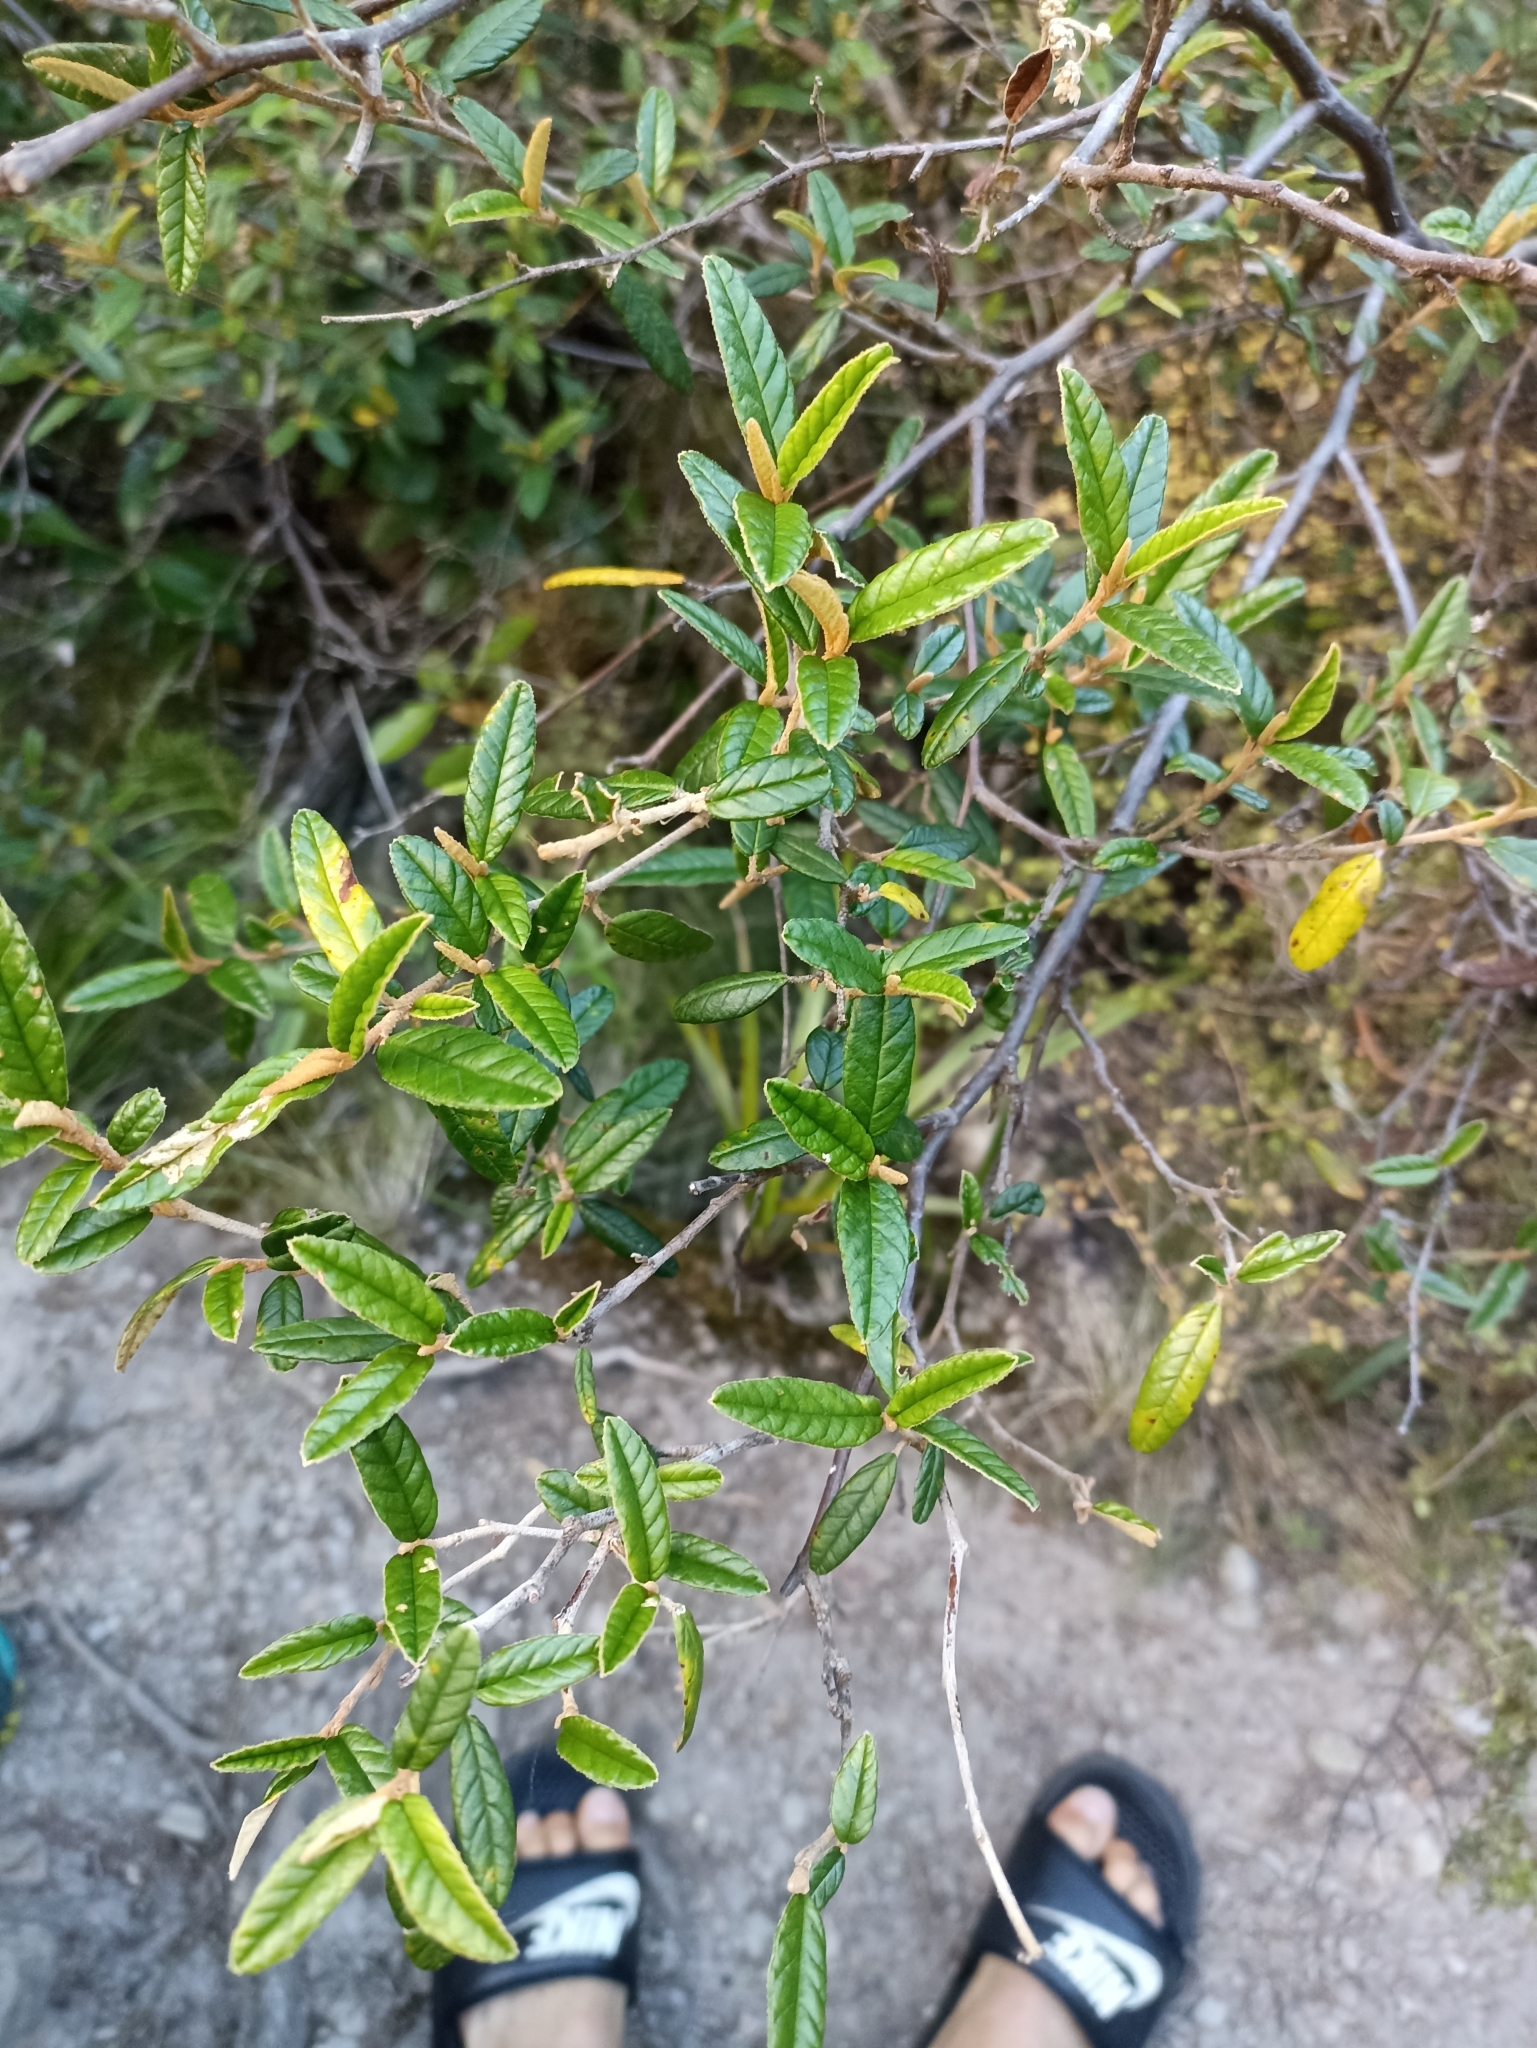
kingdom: Plantae
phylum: Tracheophyta
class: Magnoliopsida
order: Rosales
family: Rhamnaceae
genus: Pomaderris
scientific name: Pomaderris rugosa
